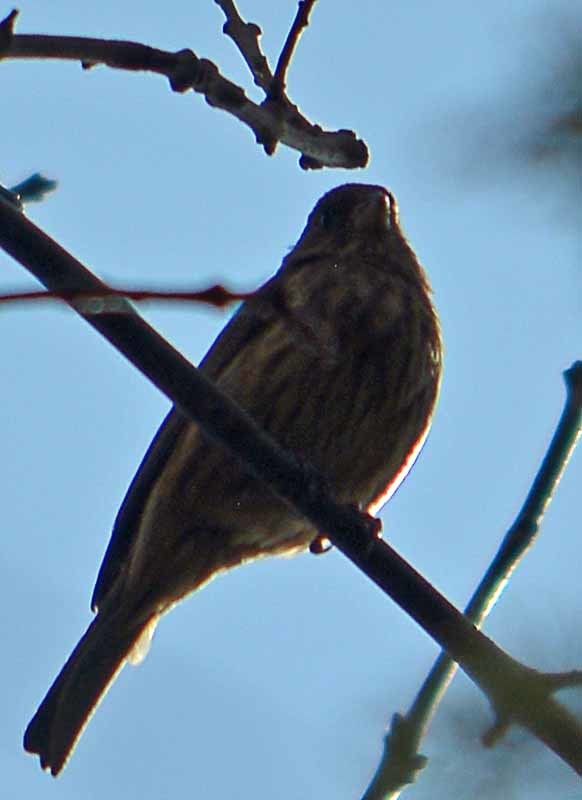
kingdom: Animalia
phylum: Chordata
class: Aves
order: Passeriformes
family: Fringillidae
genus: Haemorhous
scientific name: Haemorhous mexicanus
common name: House finch
